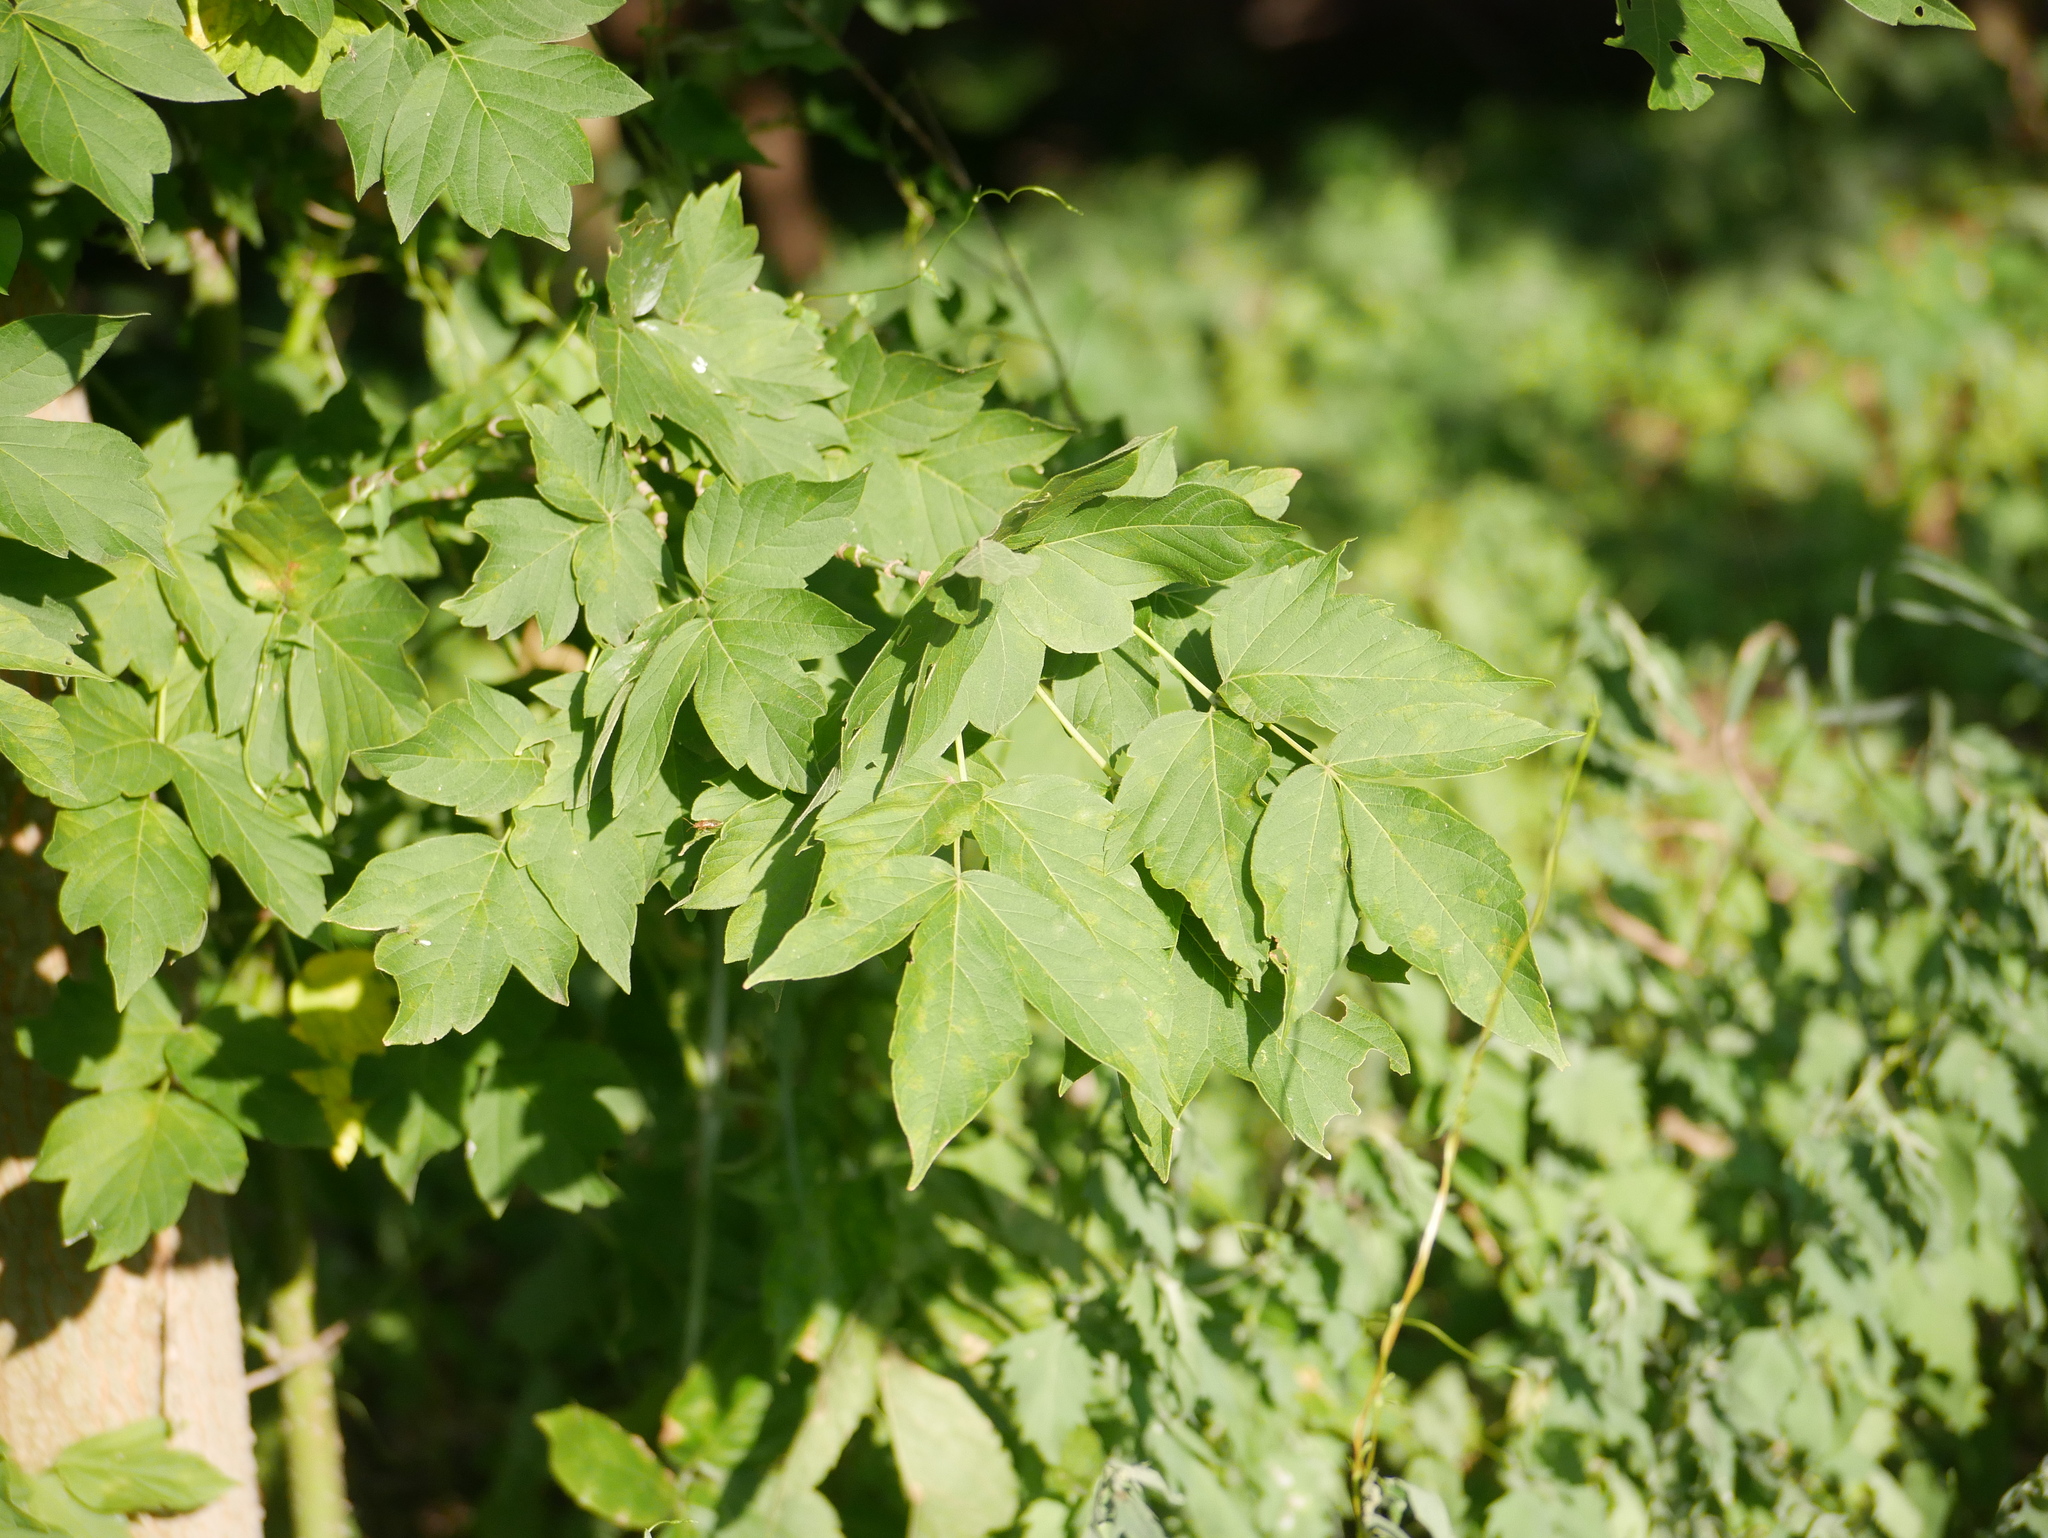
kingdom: Plantae
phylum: Tracheophyta
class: Magnoliopsida
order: Sapindales
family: Sapindaceae
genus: Acer
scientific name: Acer negundo
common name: Ashleaf maple
